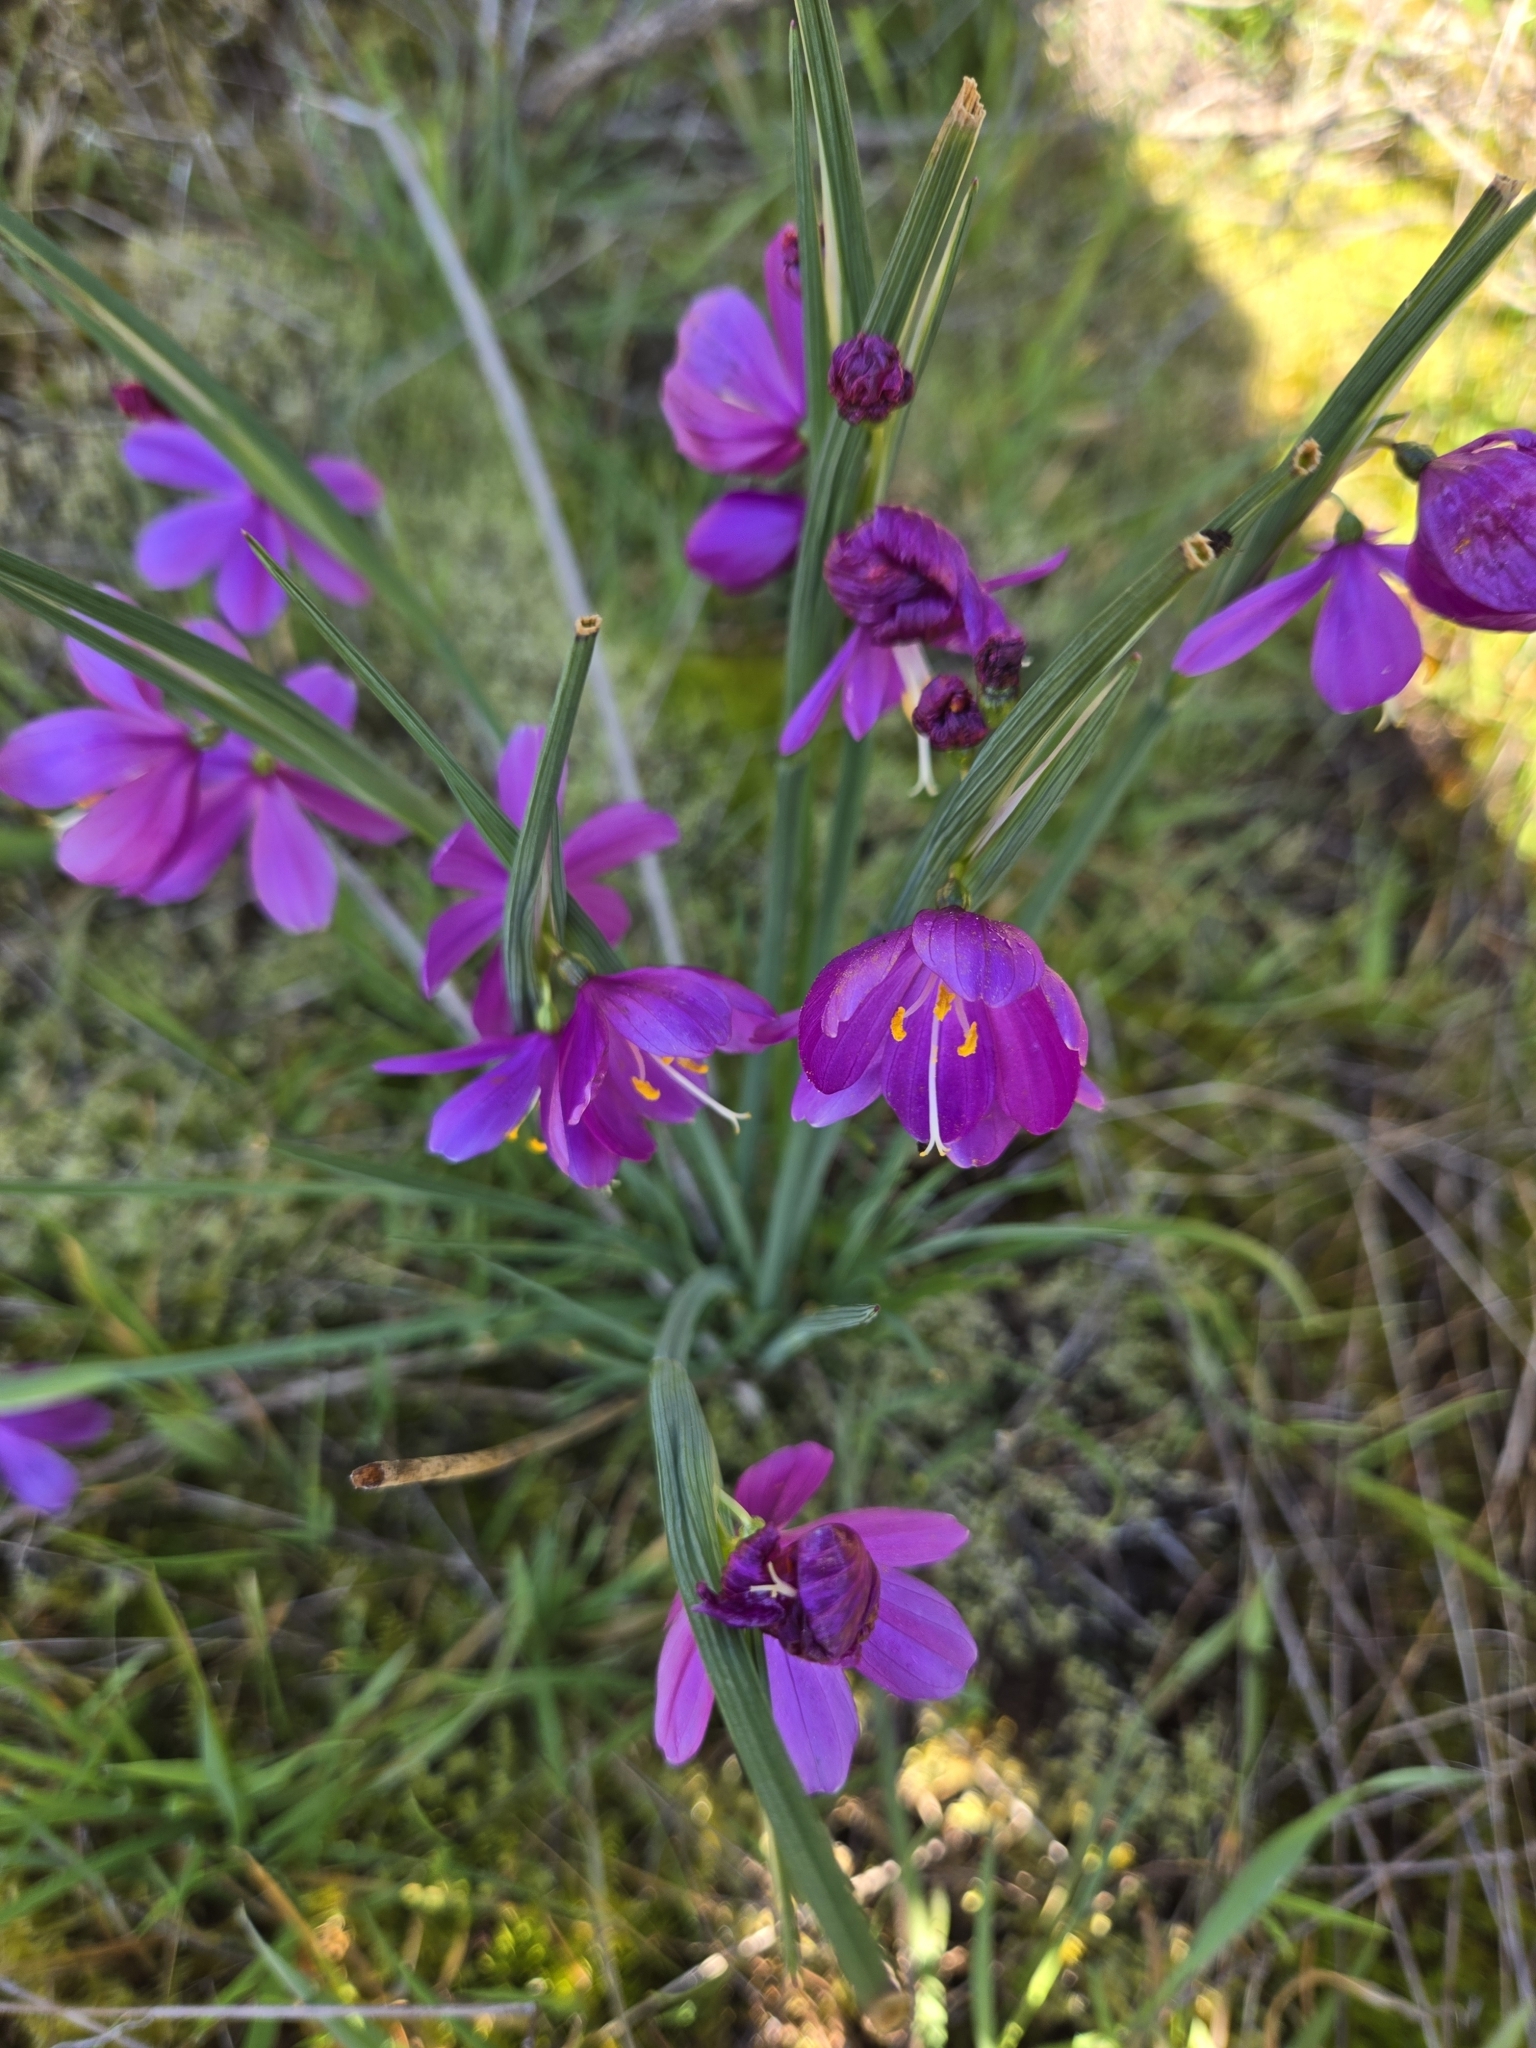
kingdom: Plantae
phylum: Tracheophyta
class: Liliopsida
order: Asparagales
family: Iridaceae
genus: Olsynium
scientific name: Olsynium douglasii
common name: Douglas' grasswidow
